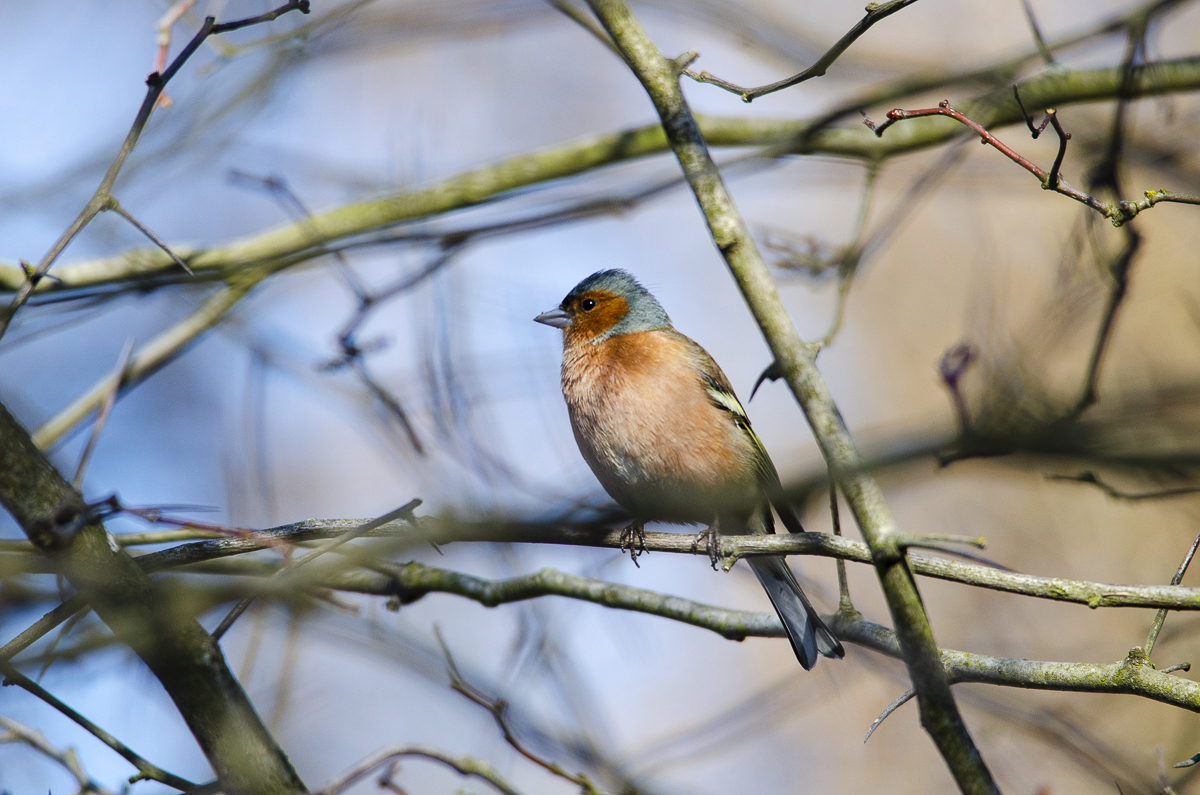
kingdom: Animalia
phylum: Chordata
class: Aves
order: Passeriformes
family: Fringillidae
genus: Fringilla
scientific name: Fringilla coelebs
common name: Common chaffinch
